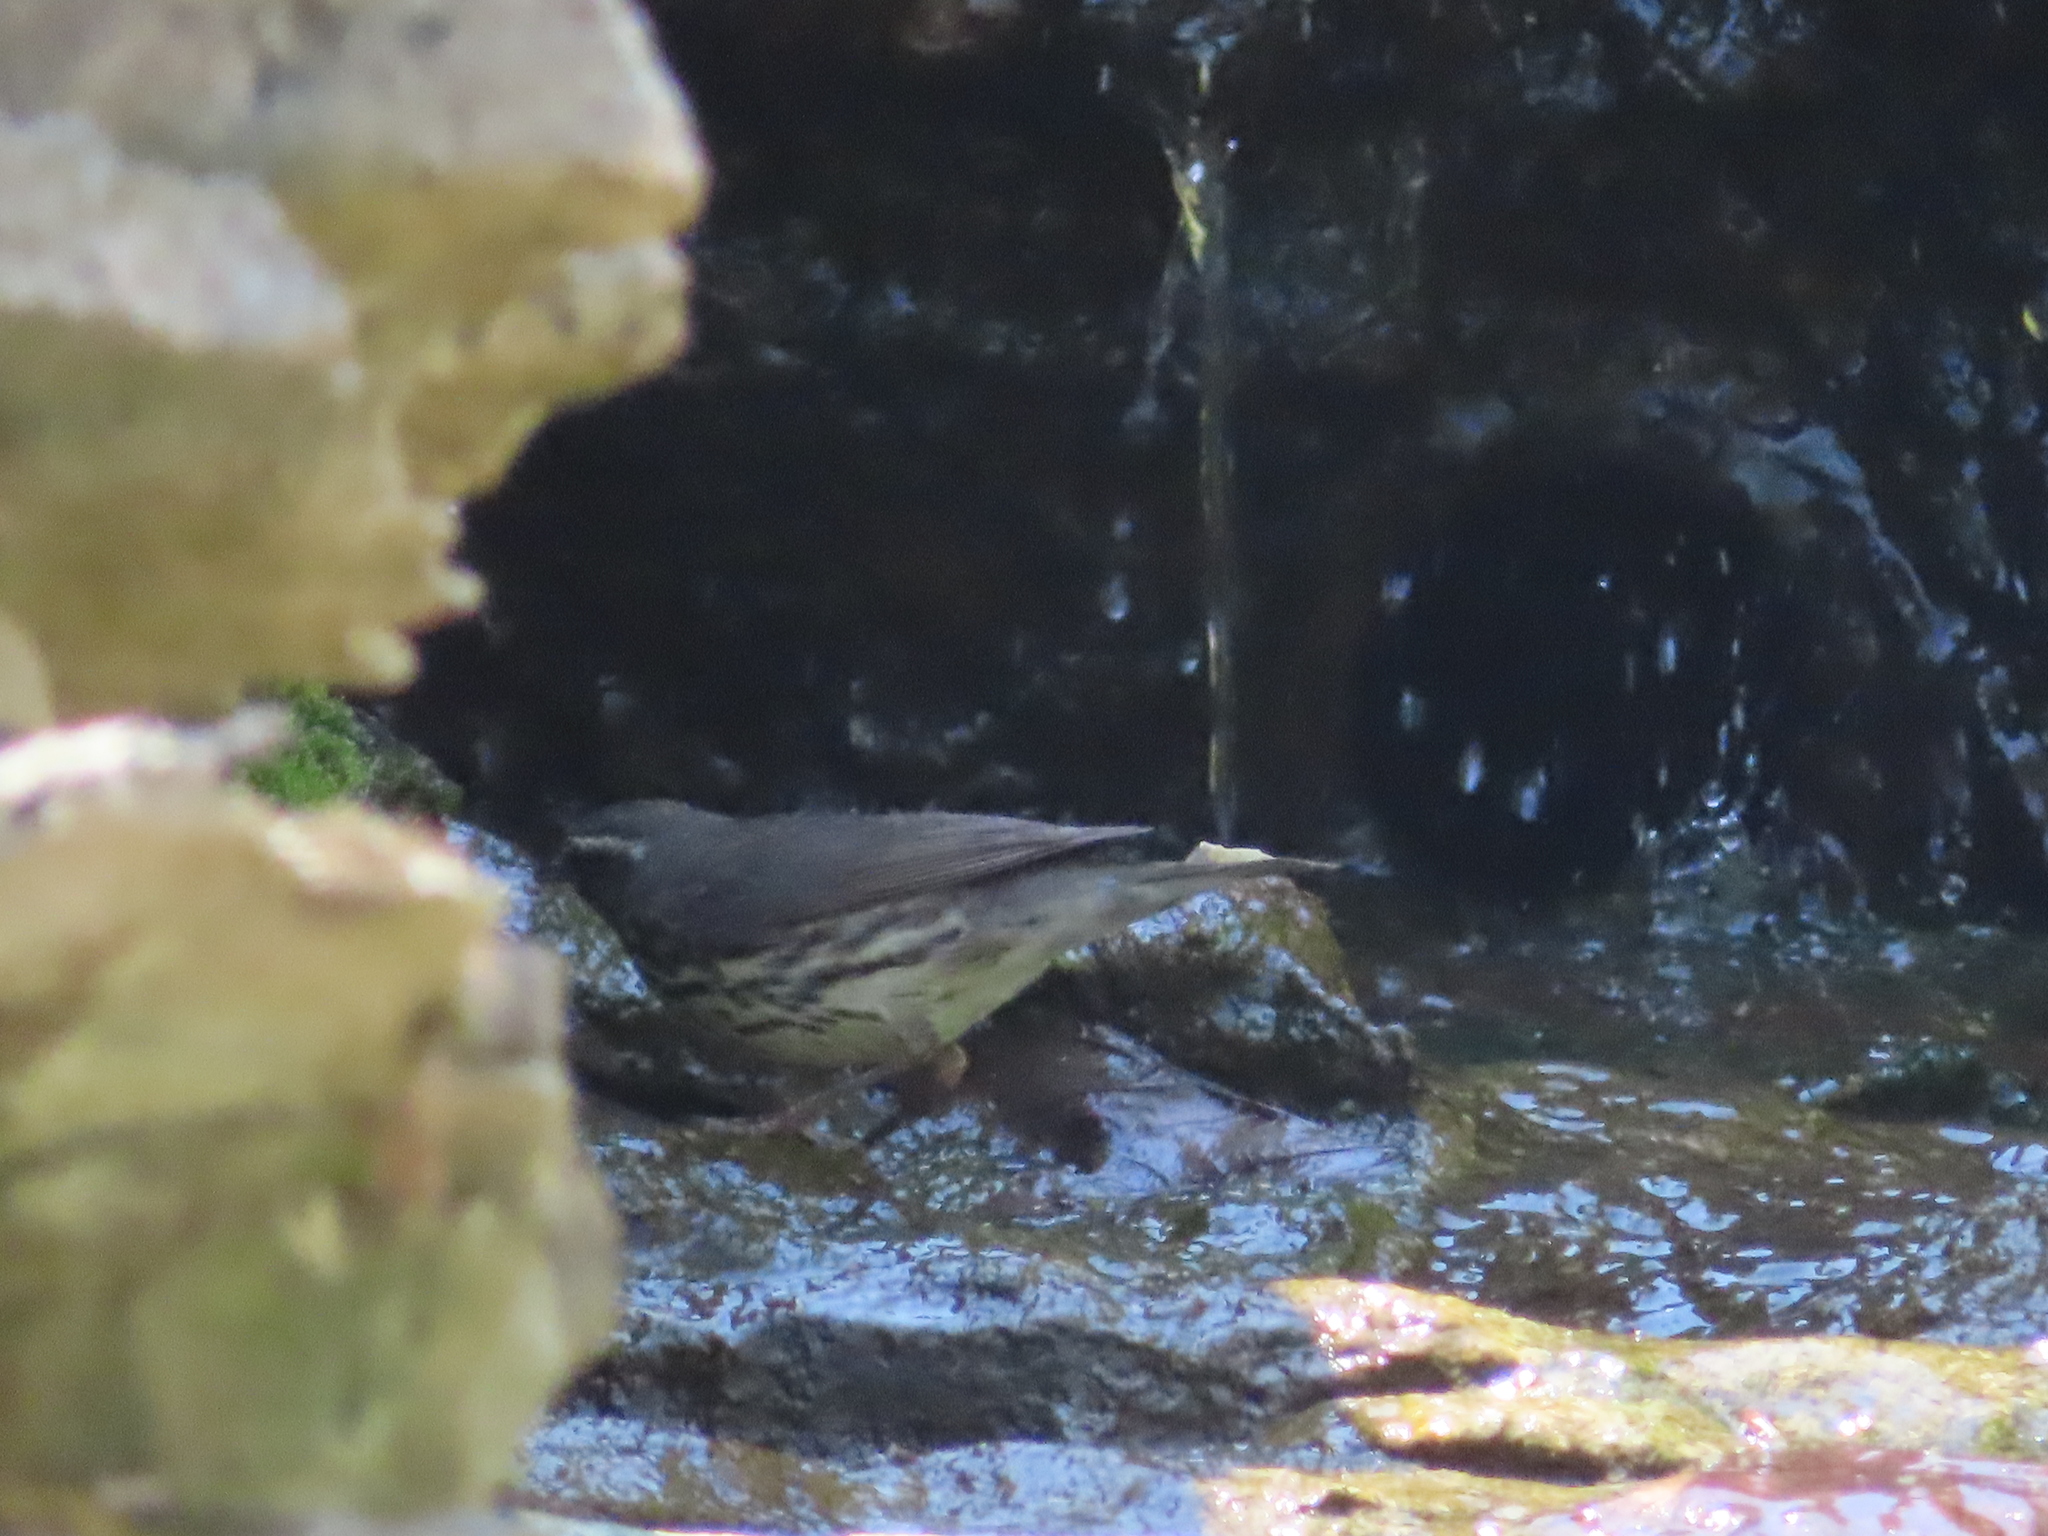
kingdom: Animalia
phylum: Chordata
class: Aves
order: Passeriformes
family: Parulidae
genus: Parkesia
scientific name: Parkesia noveboracensis
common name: Northern waterthrush
